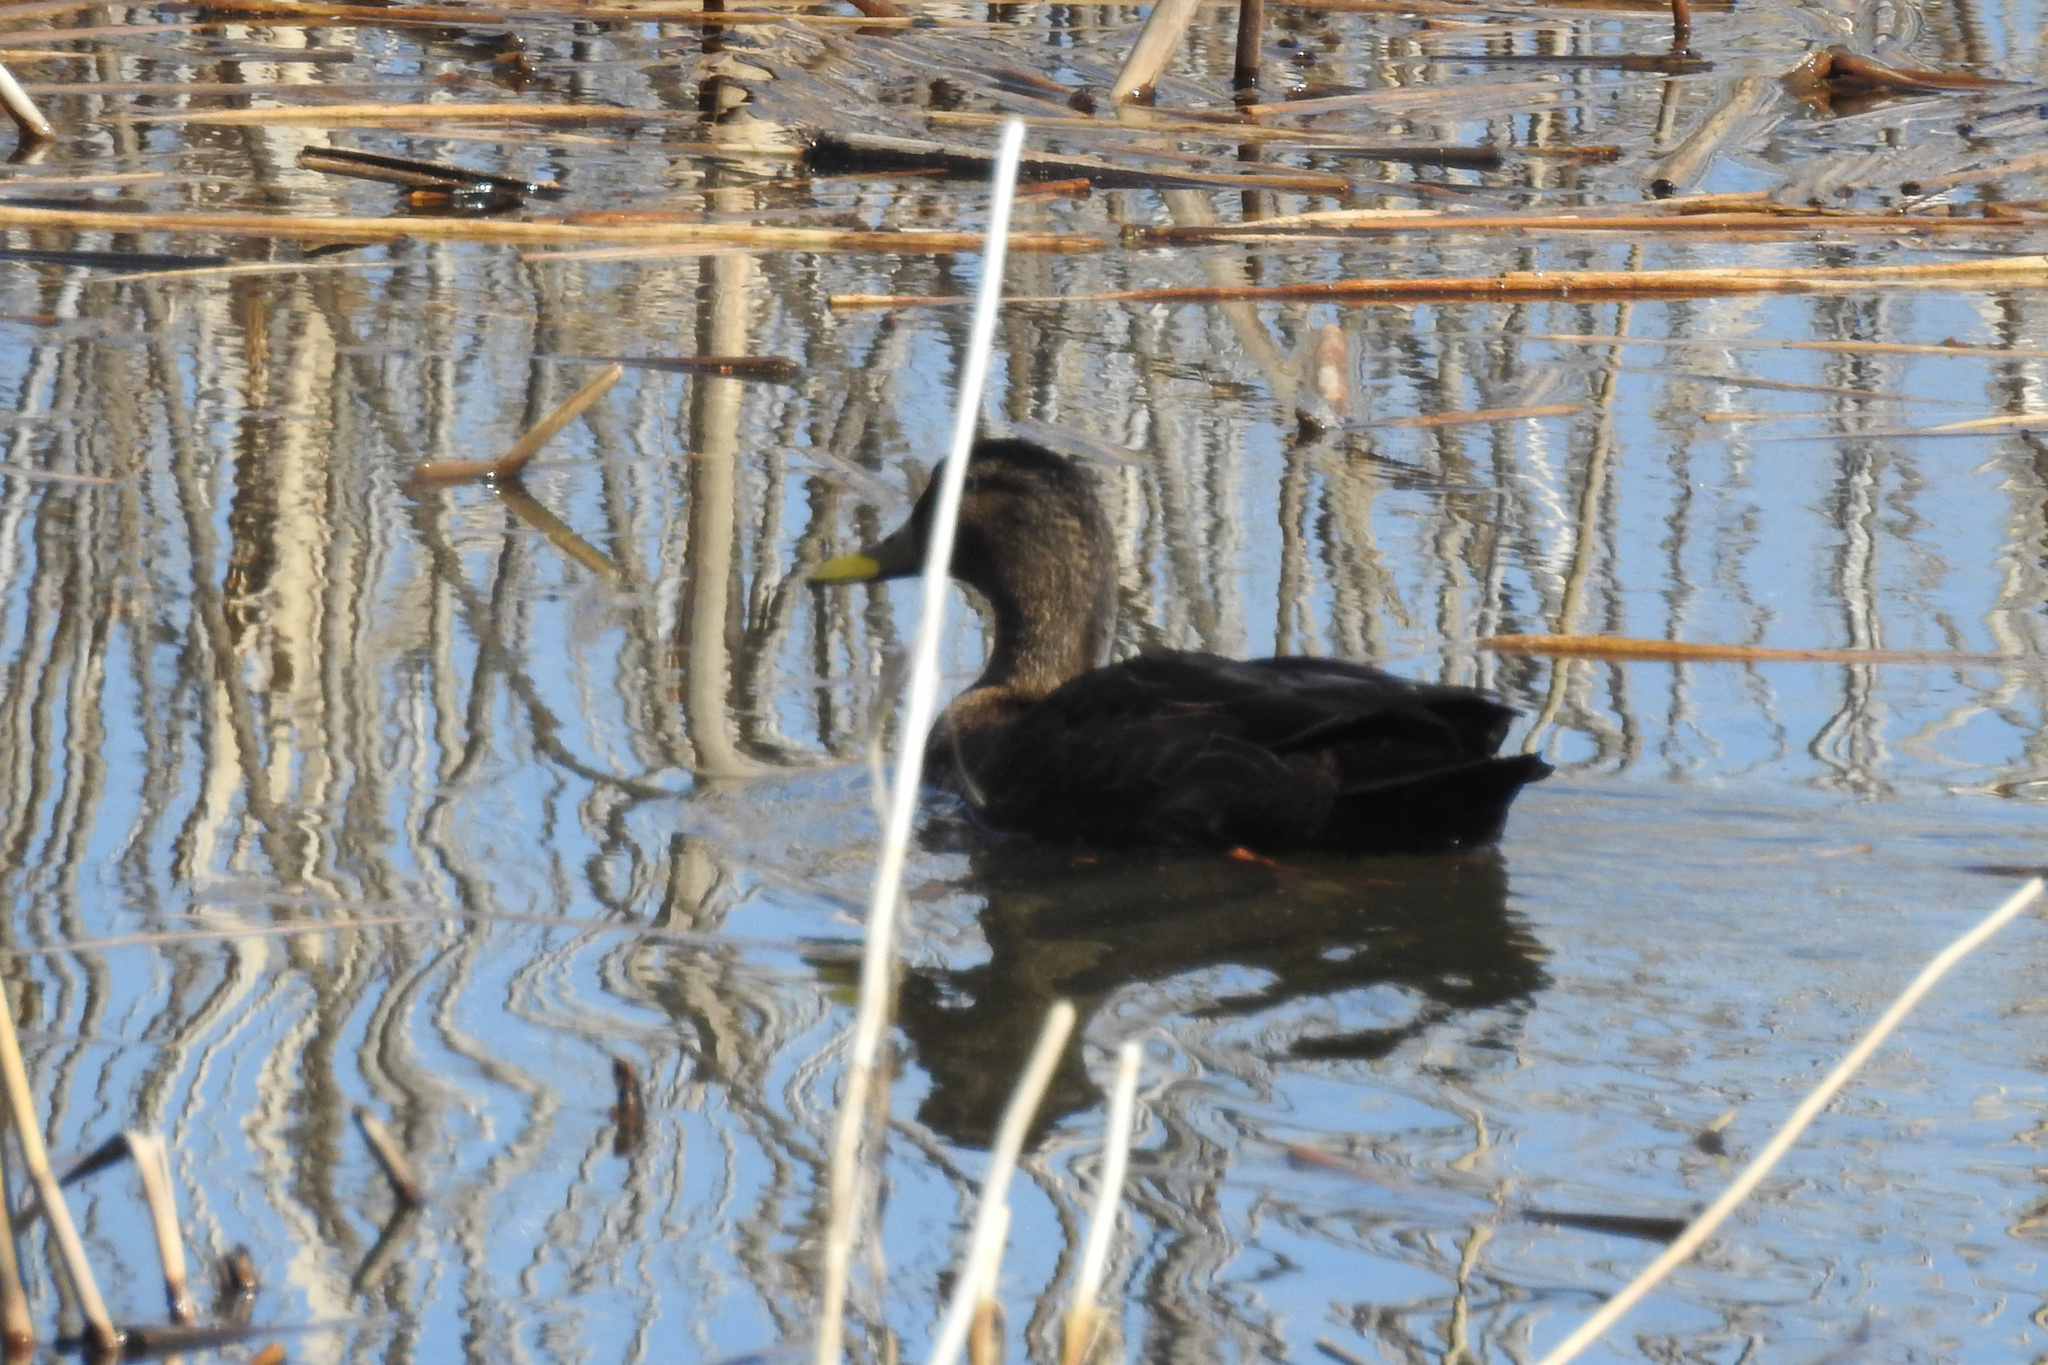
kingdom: Animalia
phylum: Chordata
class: Aves
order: Anseriformes
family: Anatidae
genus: Anas
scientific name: Anas rubripes
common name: American black duck
